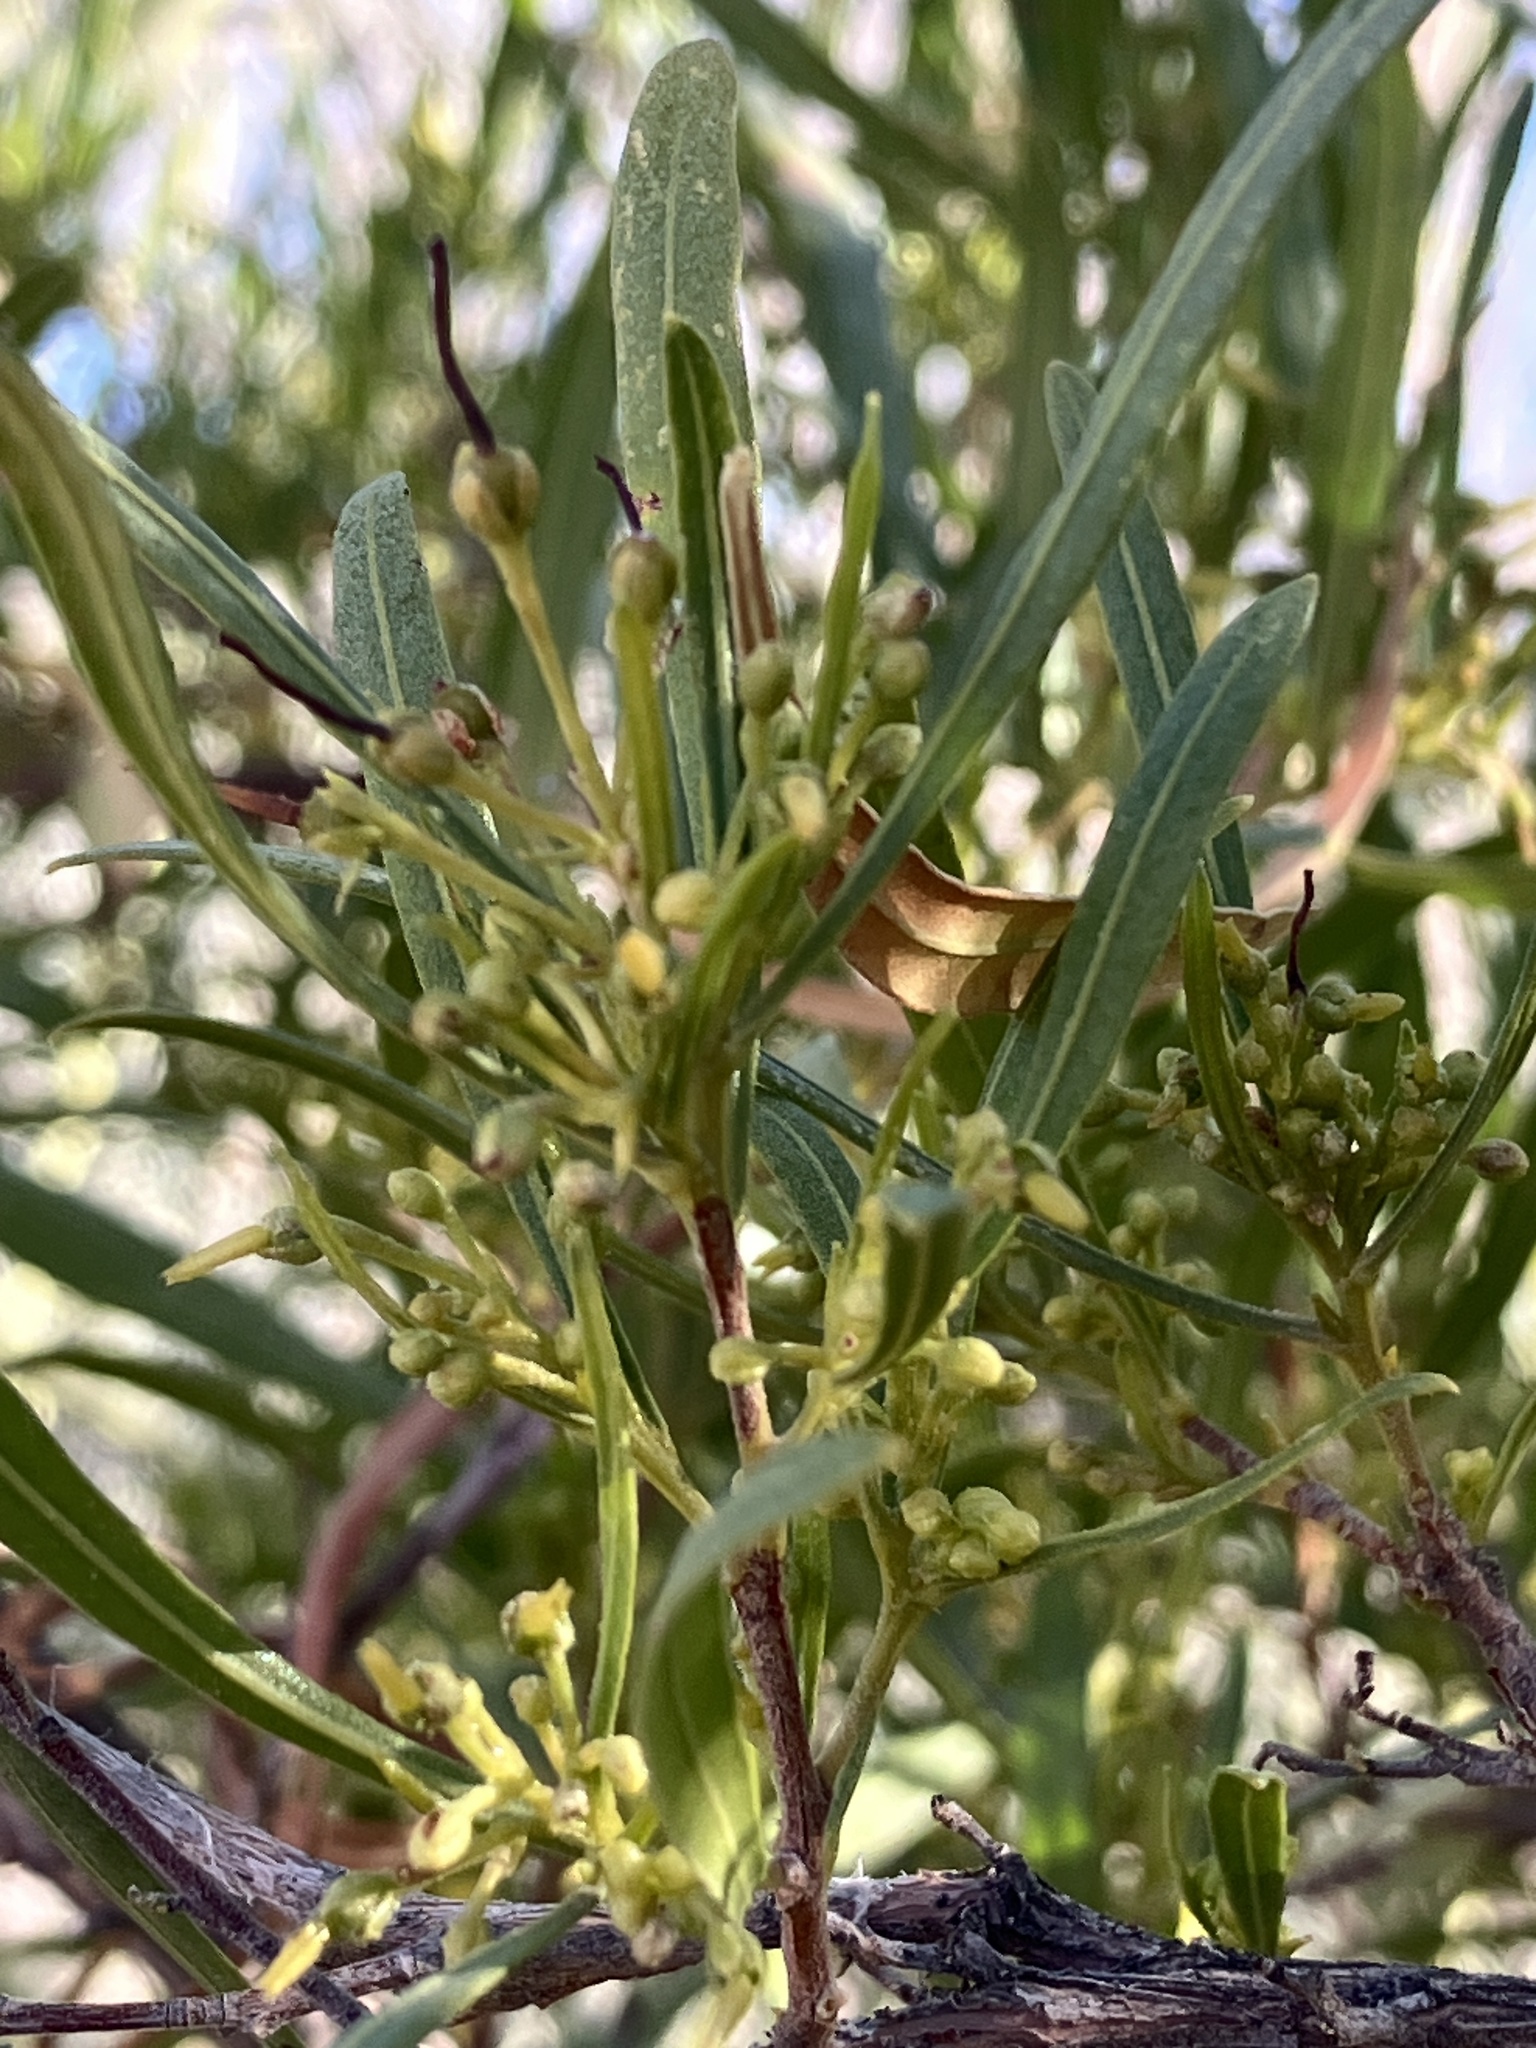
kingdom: Plantae
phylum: Tracheophyta
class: Magnoliopsida
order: Sapindales
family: Sapindaceae
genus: Dodonaea
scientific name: Dodonaea viscosa
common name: Hopbush
